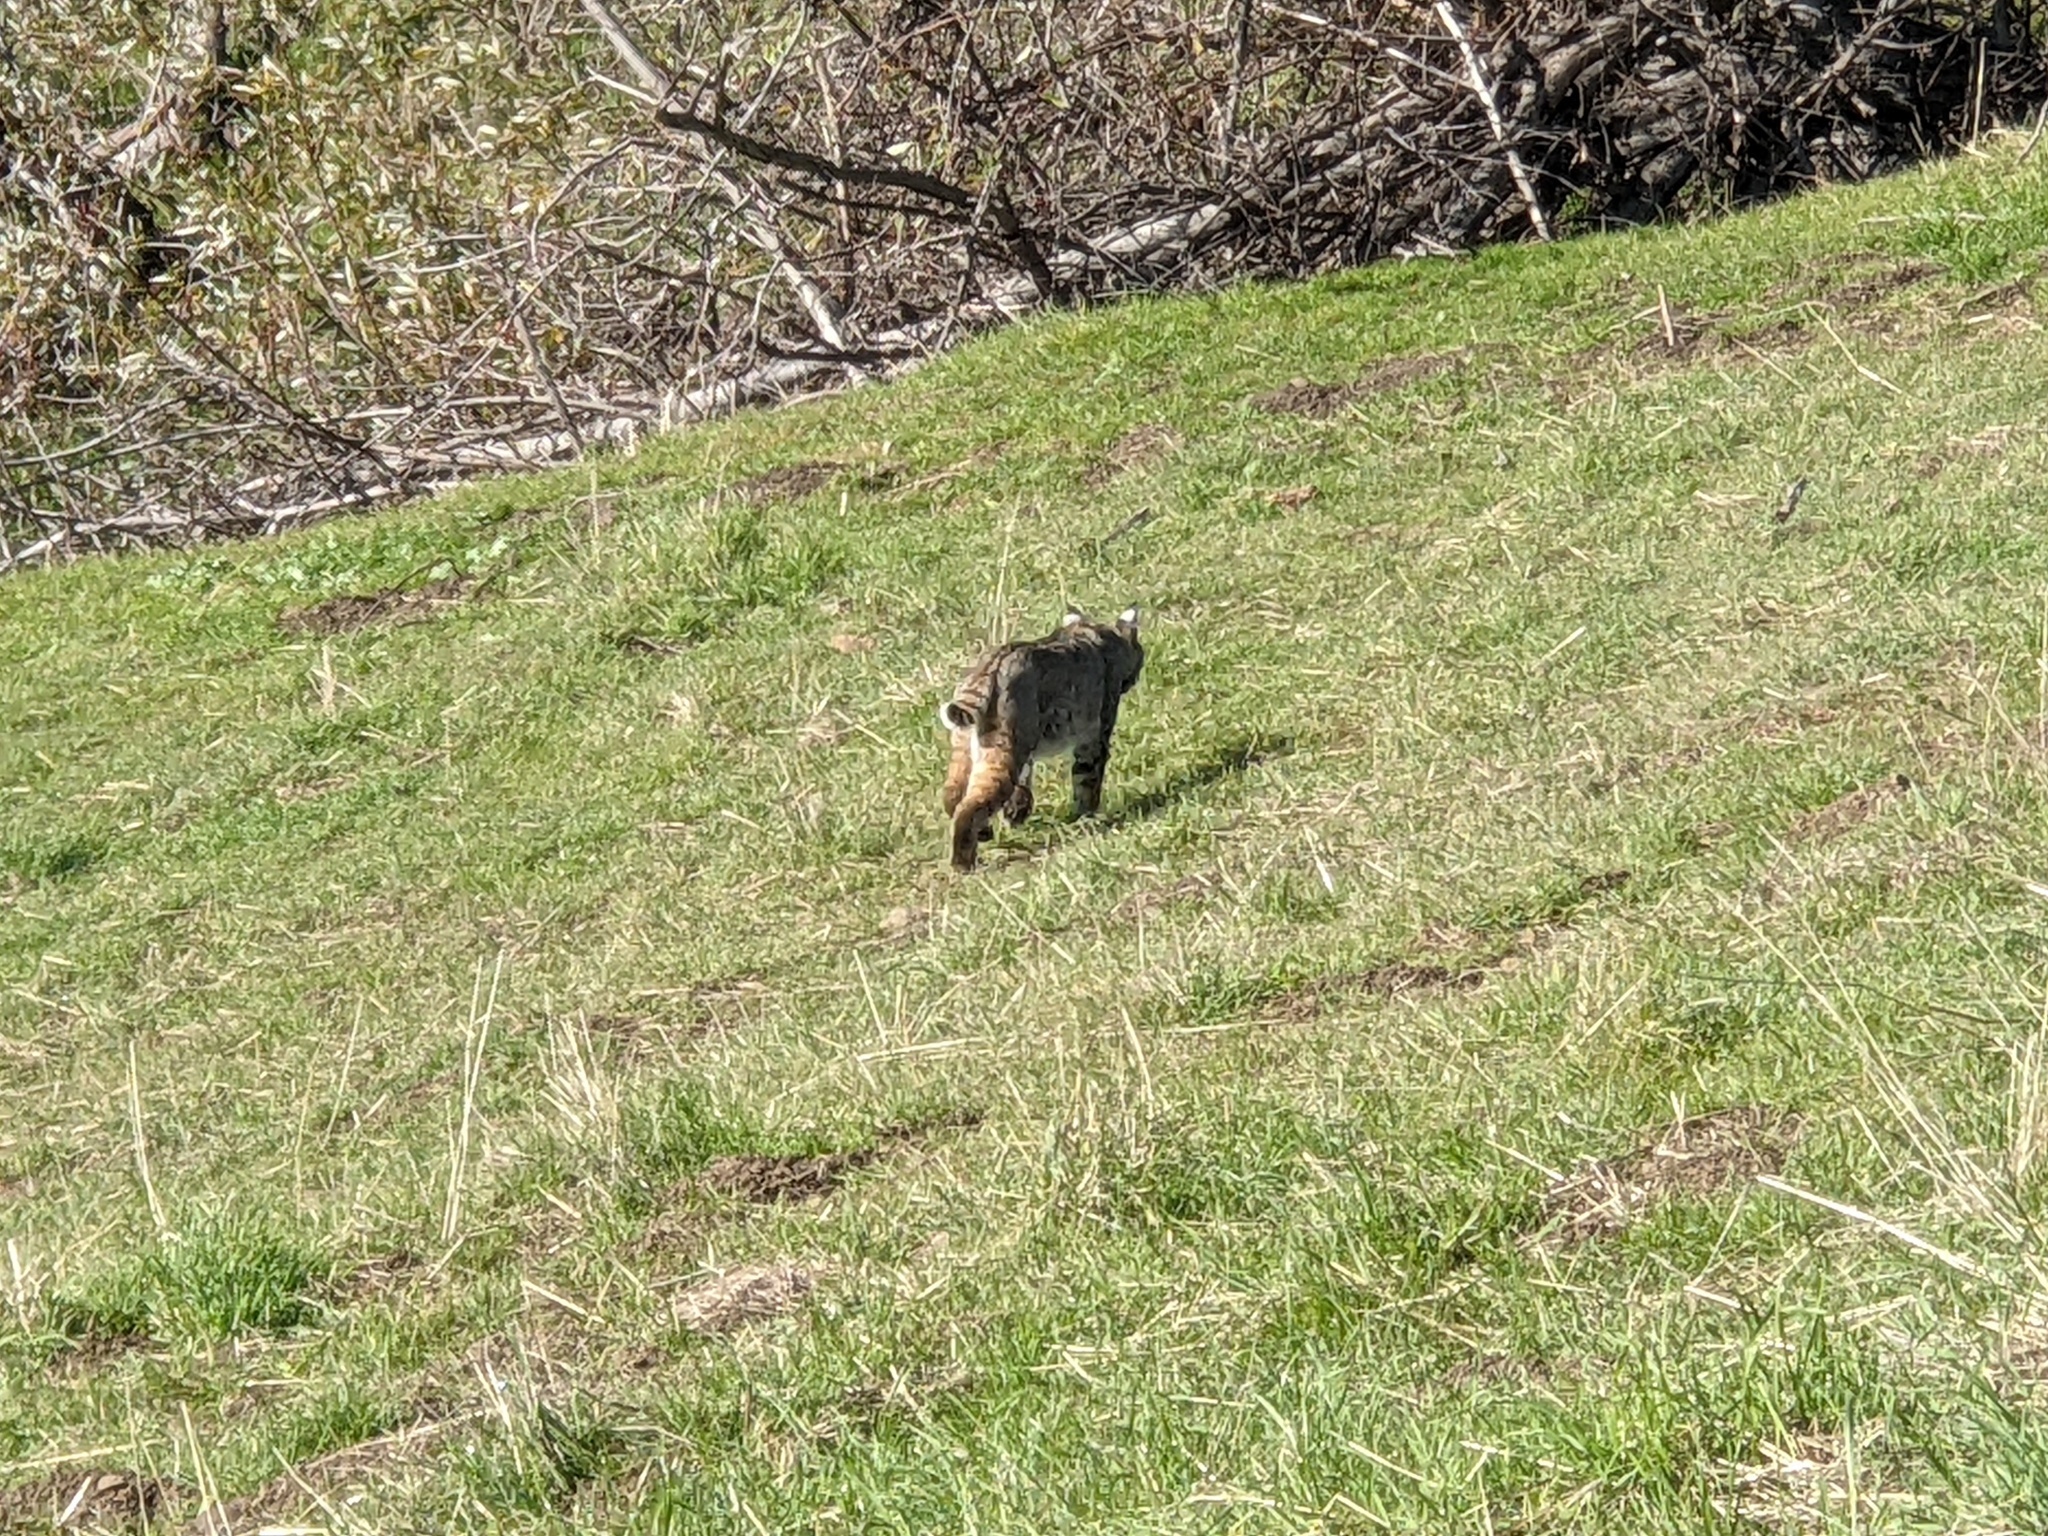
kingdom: Animalia
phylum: Chordata
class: Mammalia
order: Carnivora
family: Felidae
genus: Lynx
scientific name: Lynx rufus
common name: Bobcat
